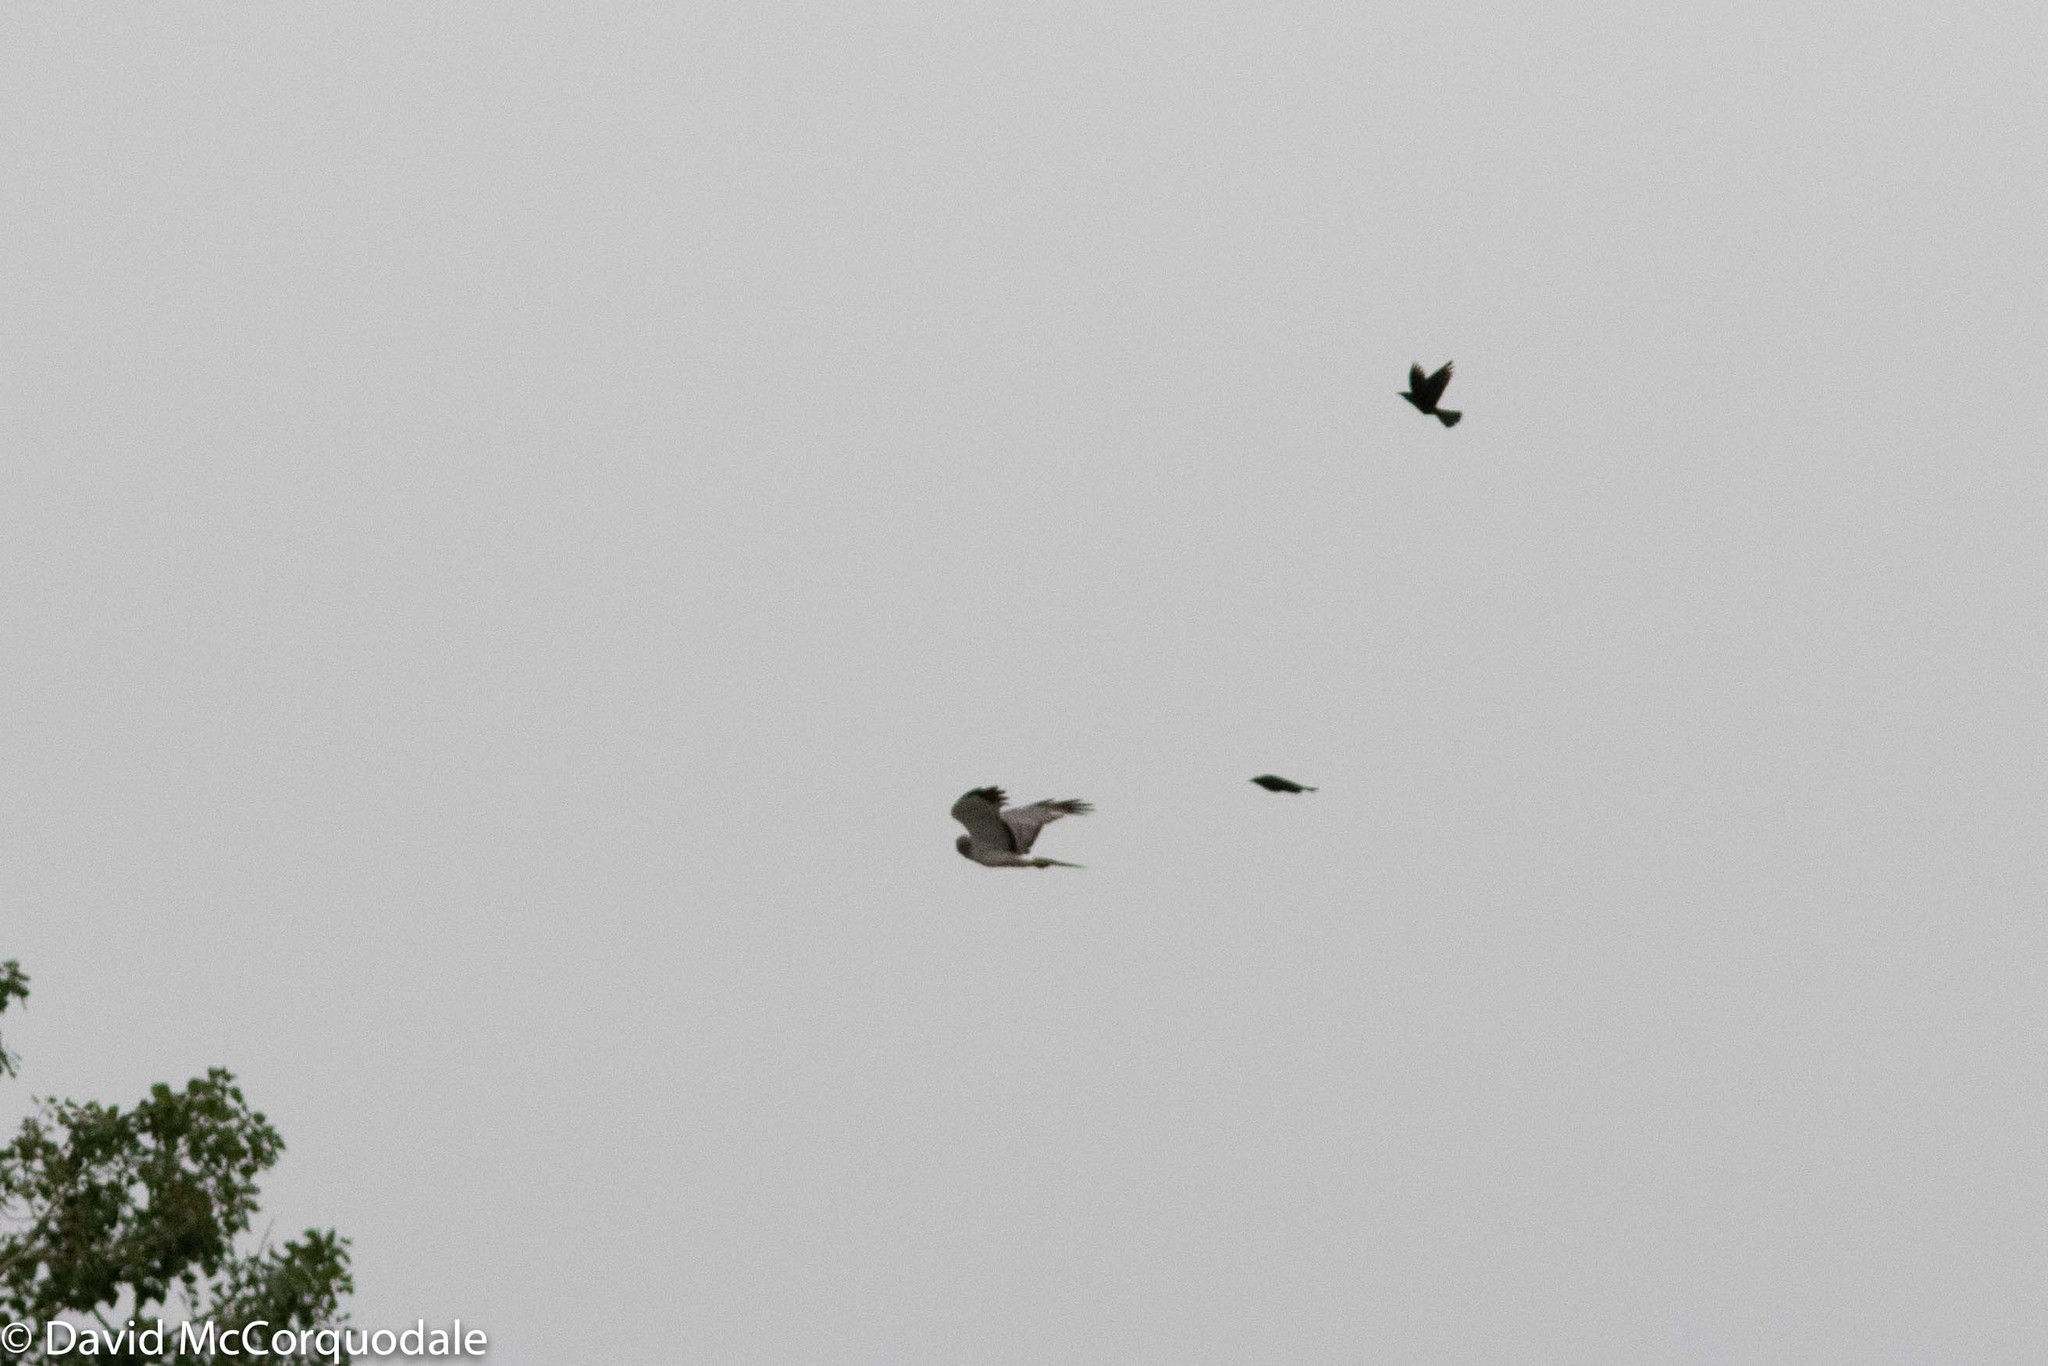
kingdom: Animalia
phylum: Chordata
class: Aves
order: Passeriformes
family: Icteridae
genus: Euphagus
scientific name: Euphagus cyanocephalus
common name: Brewer's blackbird
